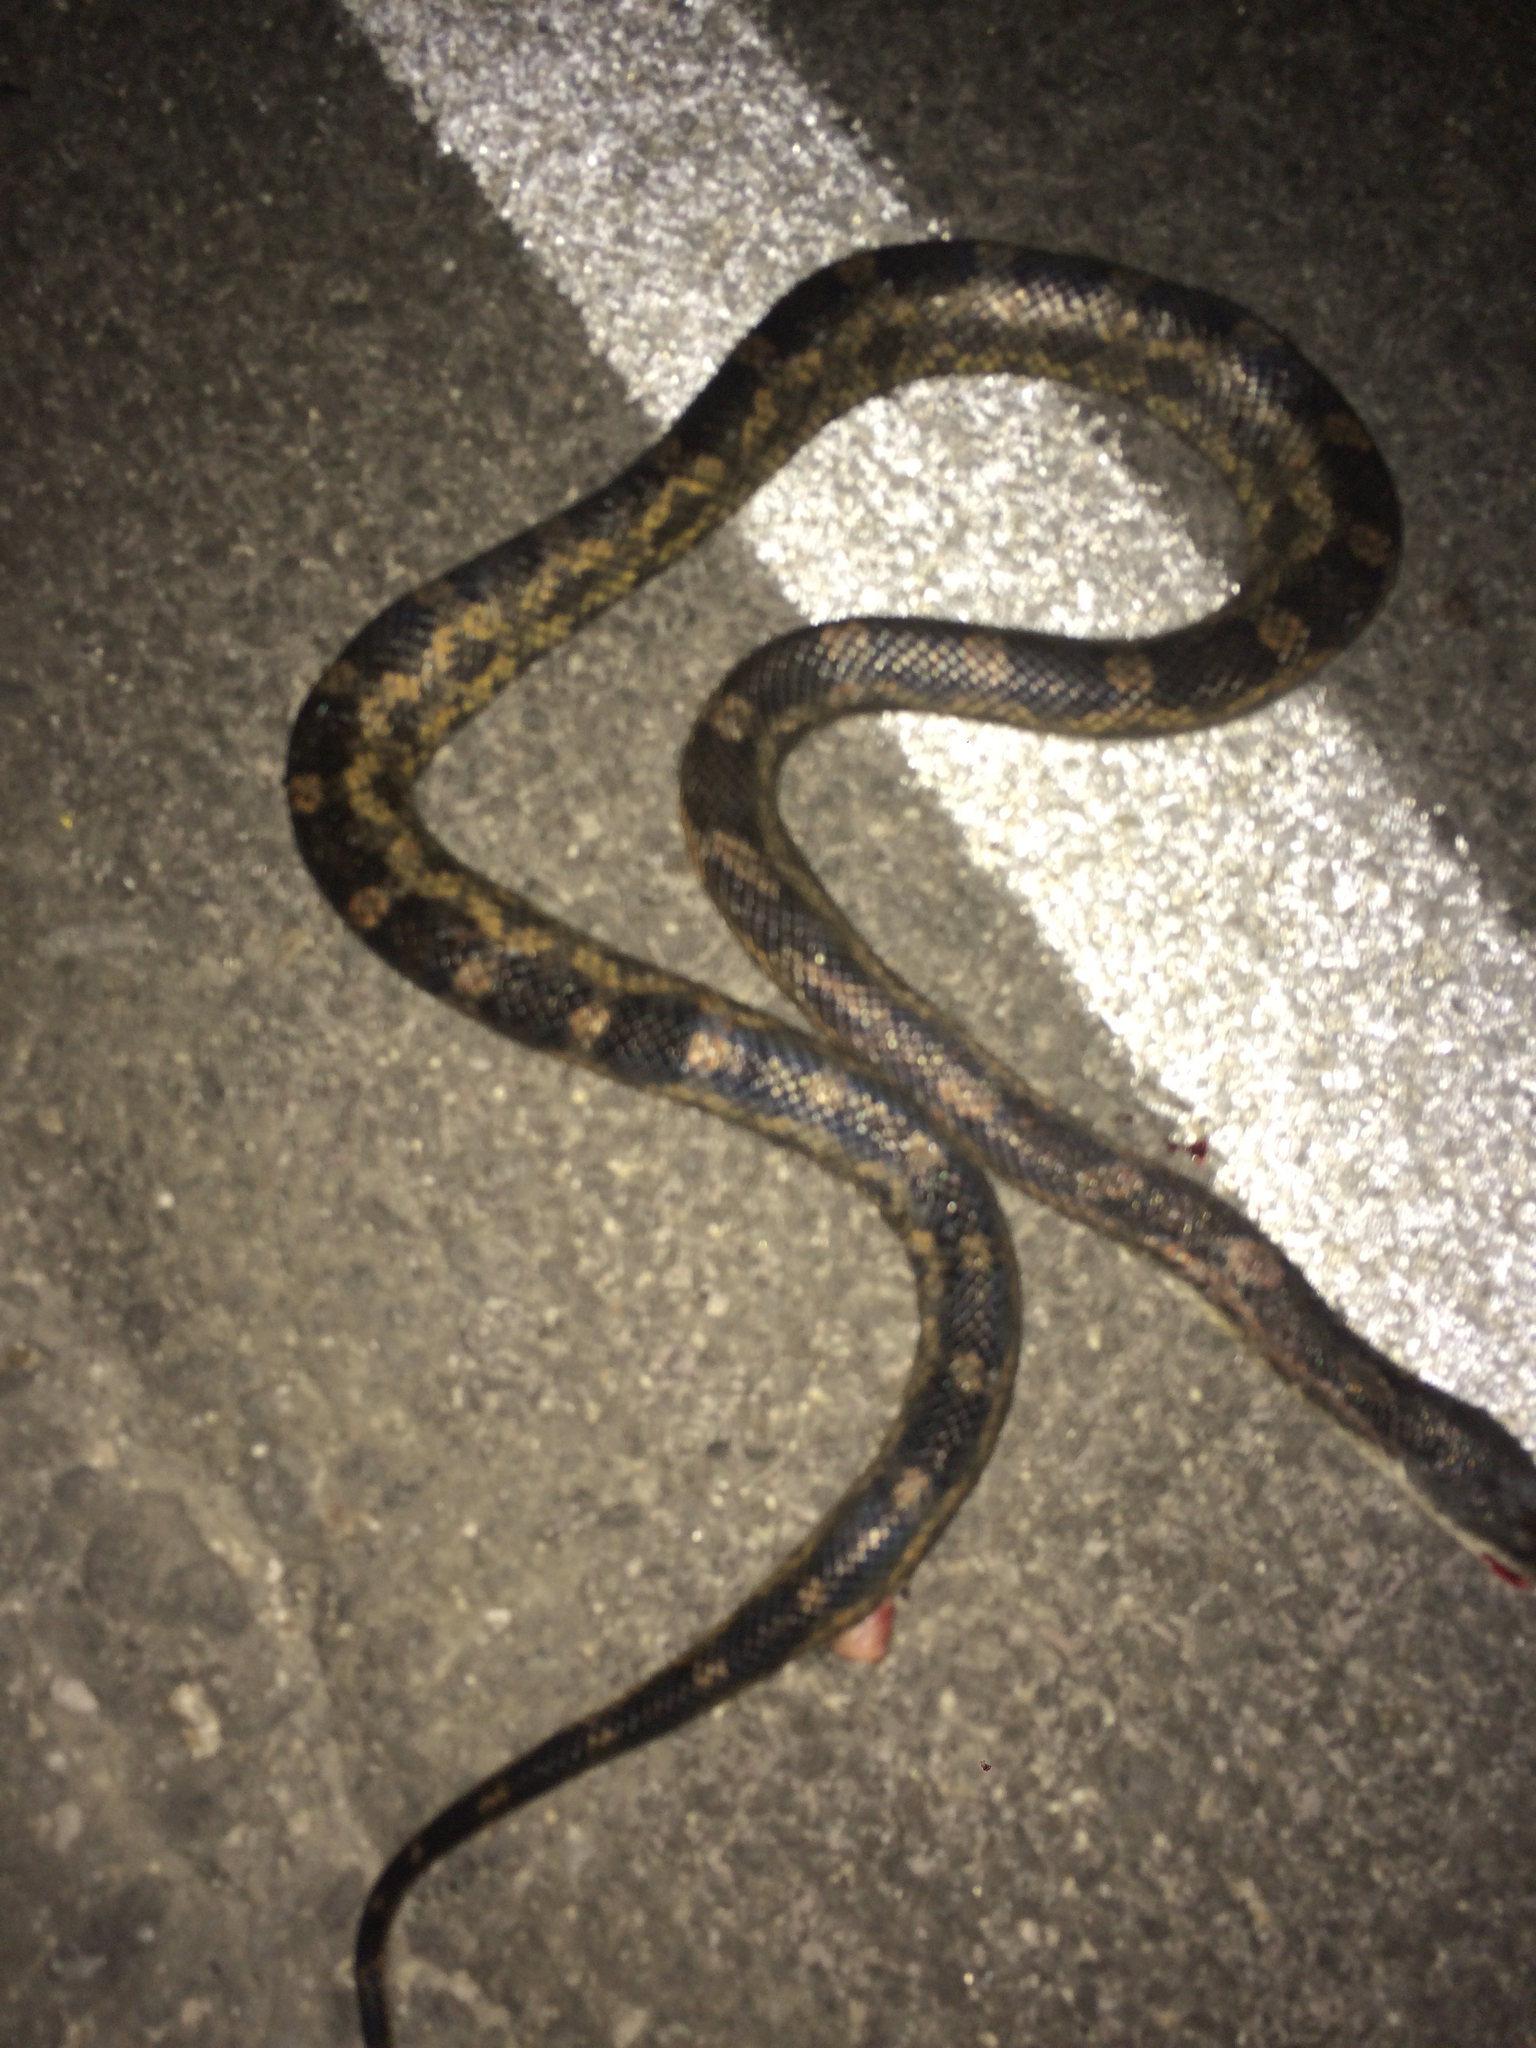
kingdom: Animalia
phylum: Chordata
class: Squamata
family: Colubridae
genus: Pantherophis
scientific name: Pantherophis obsoletus
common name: Black rat snake
